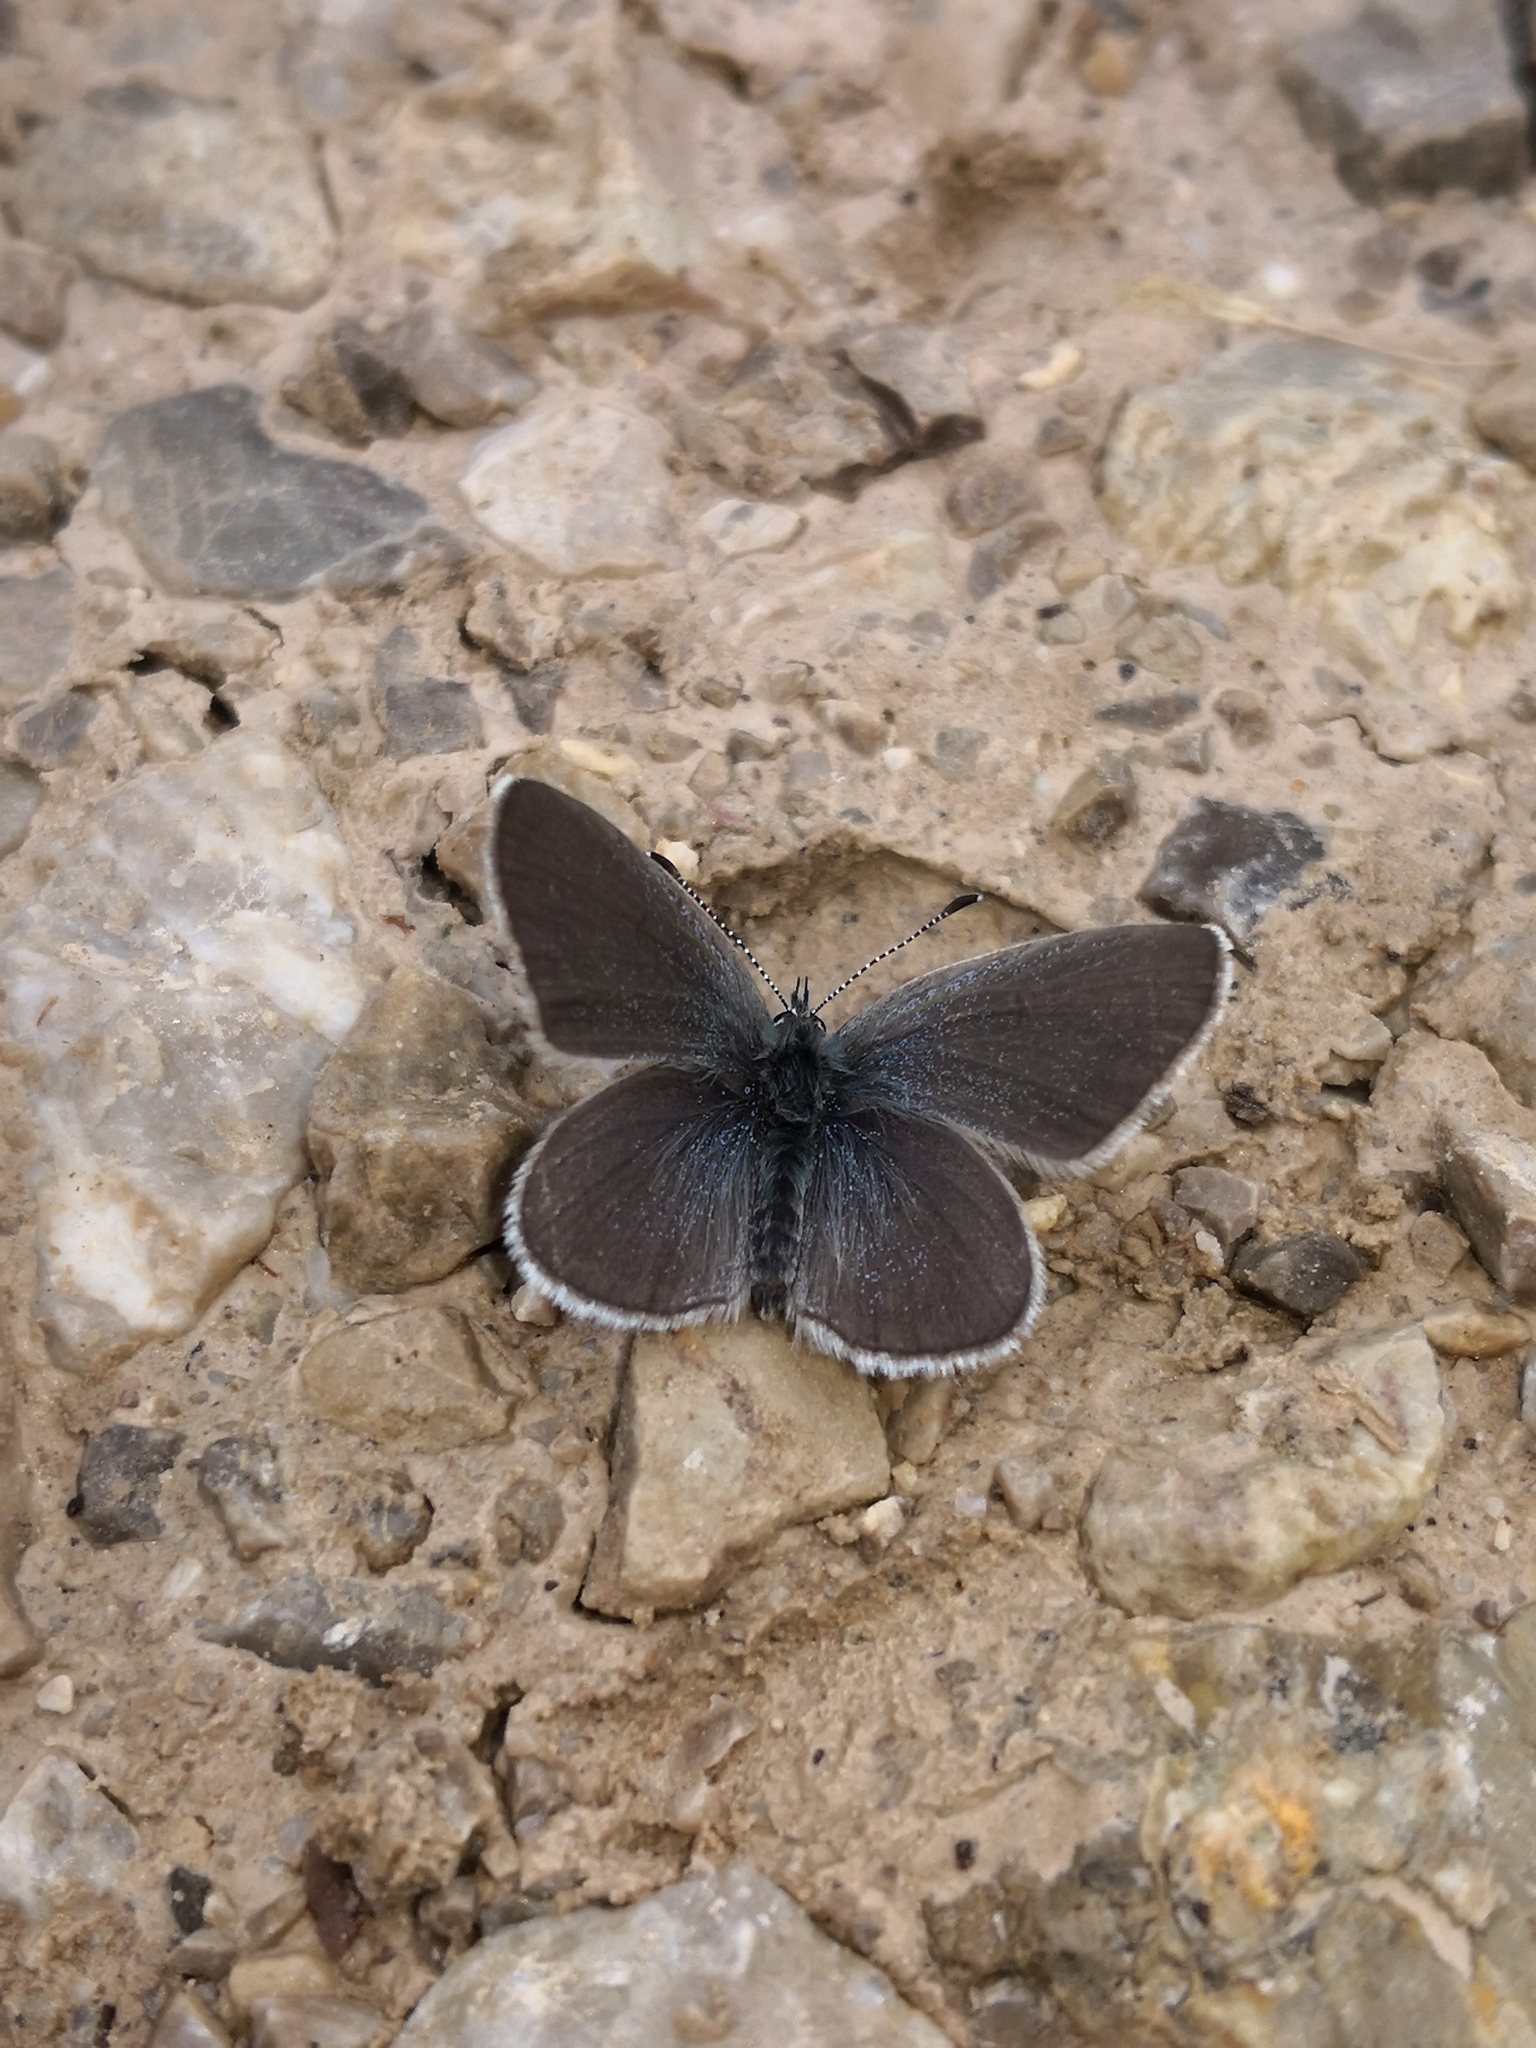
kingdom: Animalia
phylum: Arthropoda
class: Insecta
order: Lepidoptera
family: Lycaenidae
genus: Cupido
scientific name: Cupido minimus
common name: Small blue
